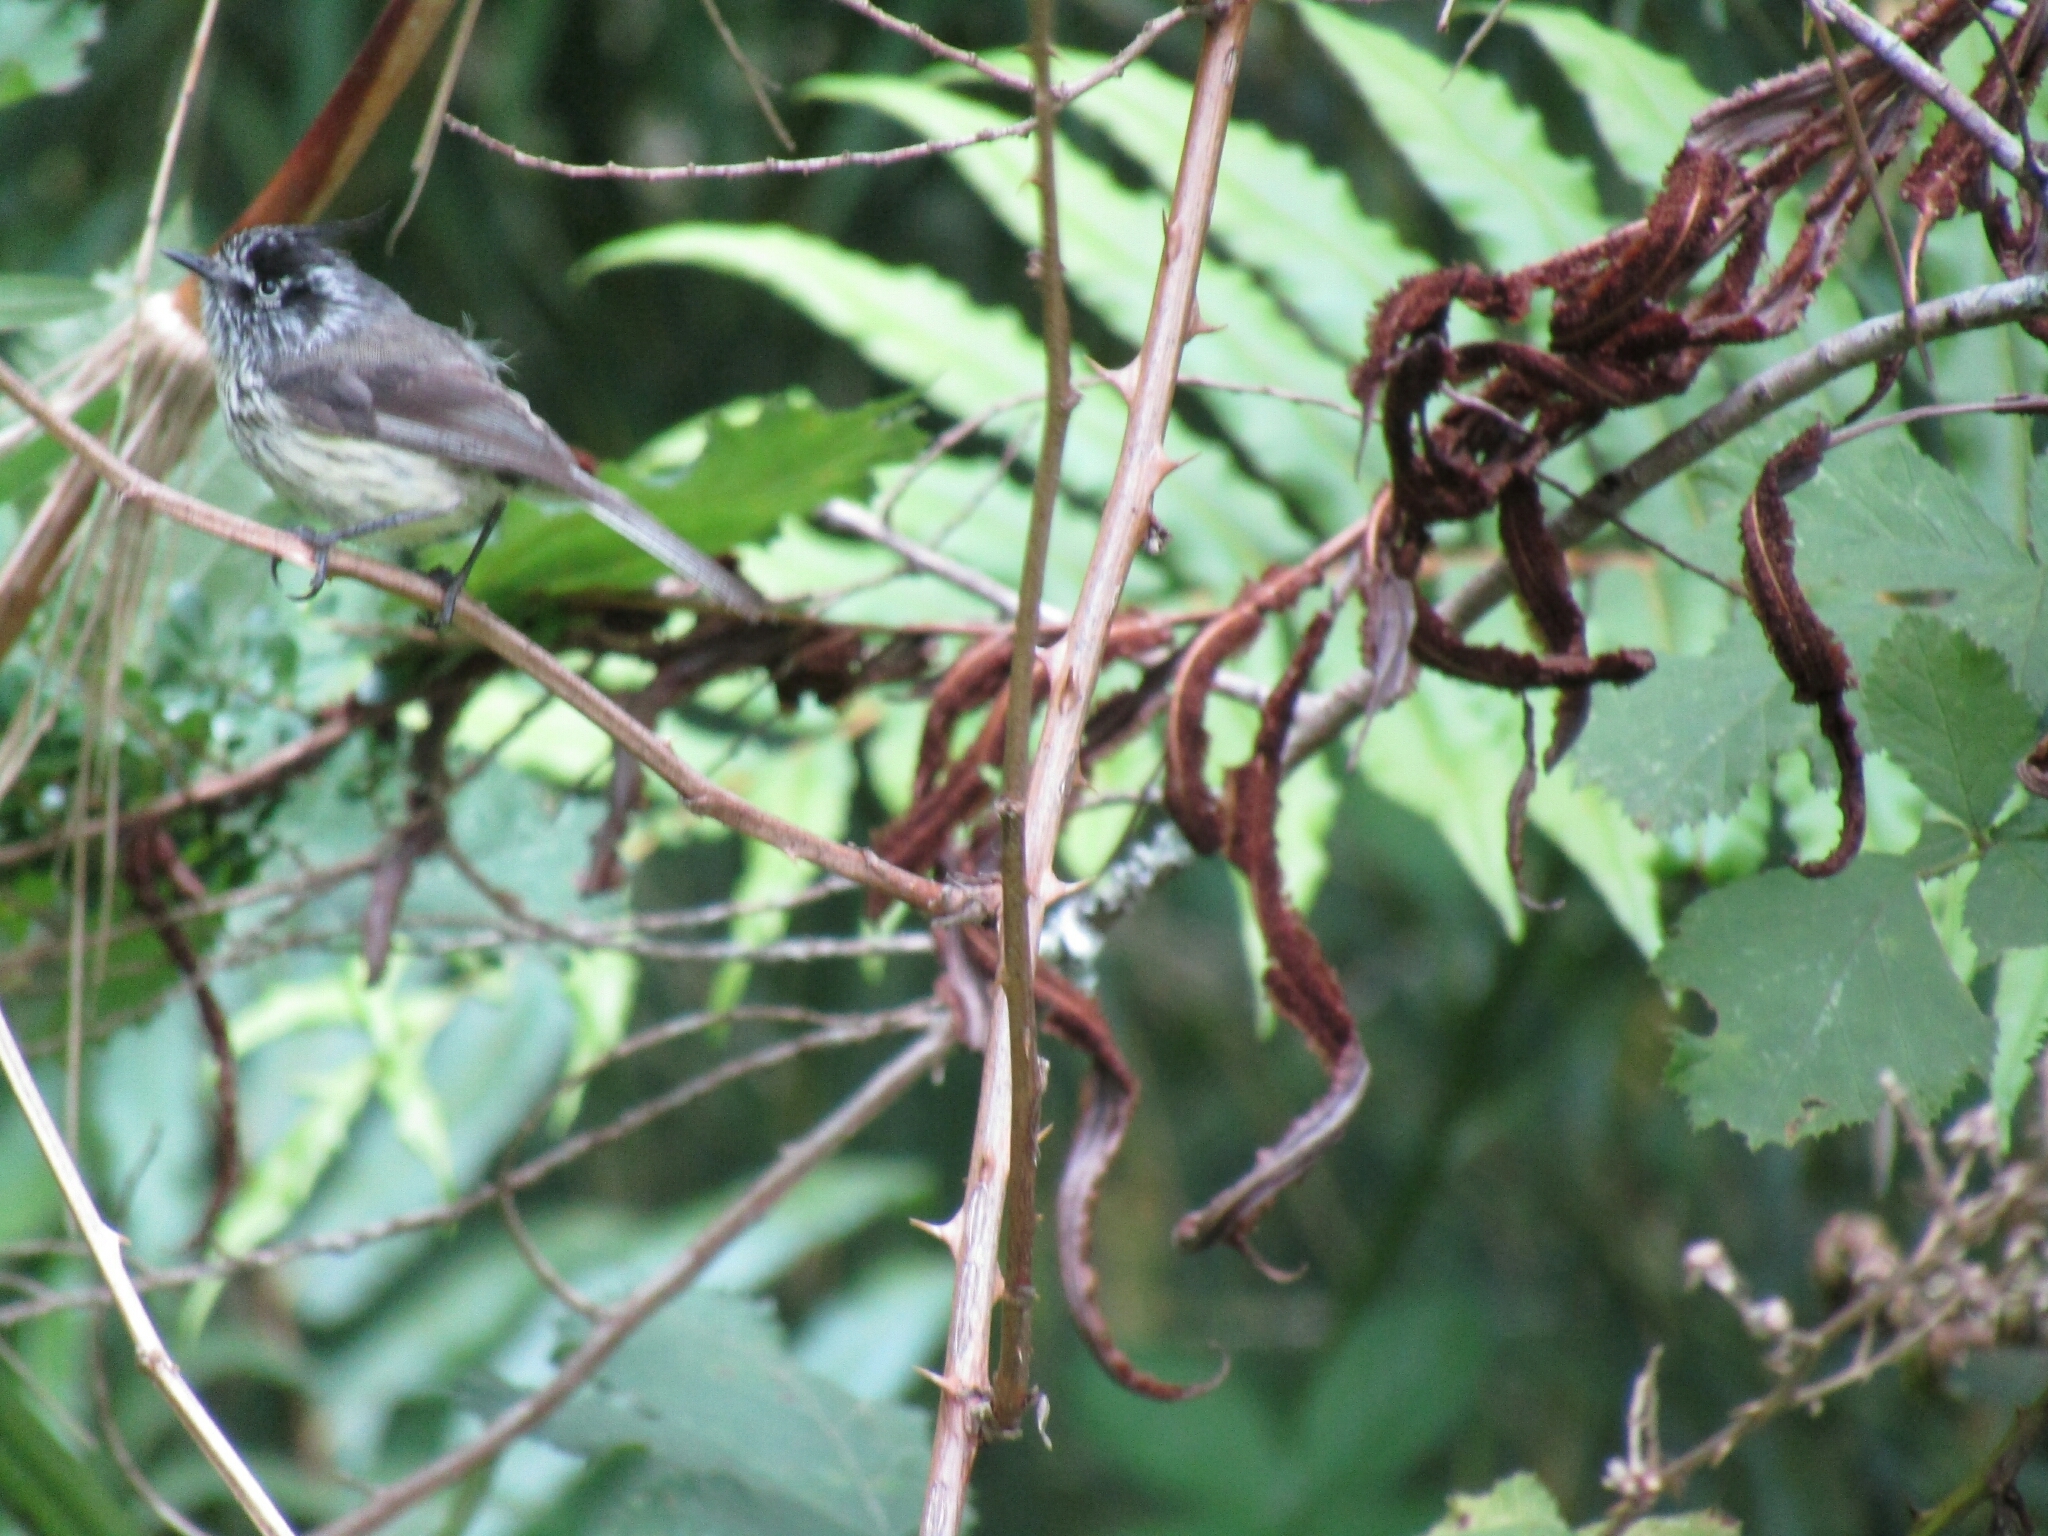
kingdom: Animalia
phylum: Chordata
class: Aves
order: Passeriformes
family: Tyrannidae
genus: Anairetes
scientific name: Anairetes parulus
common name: Tufted tit-tyrant
